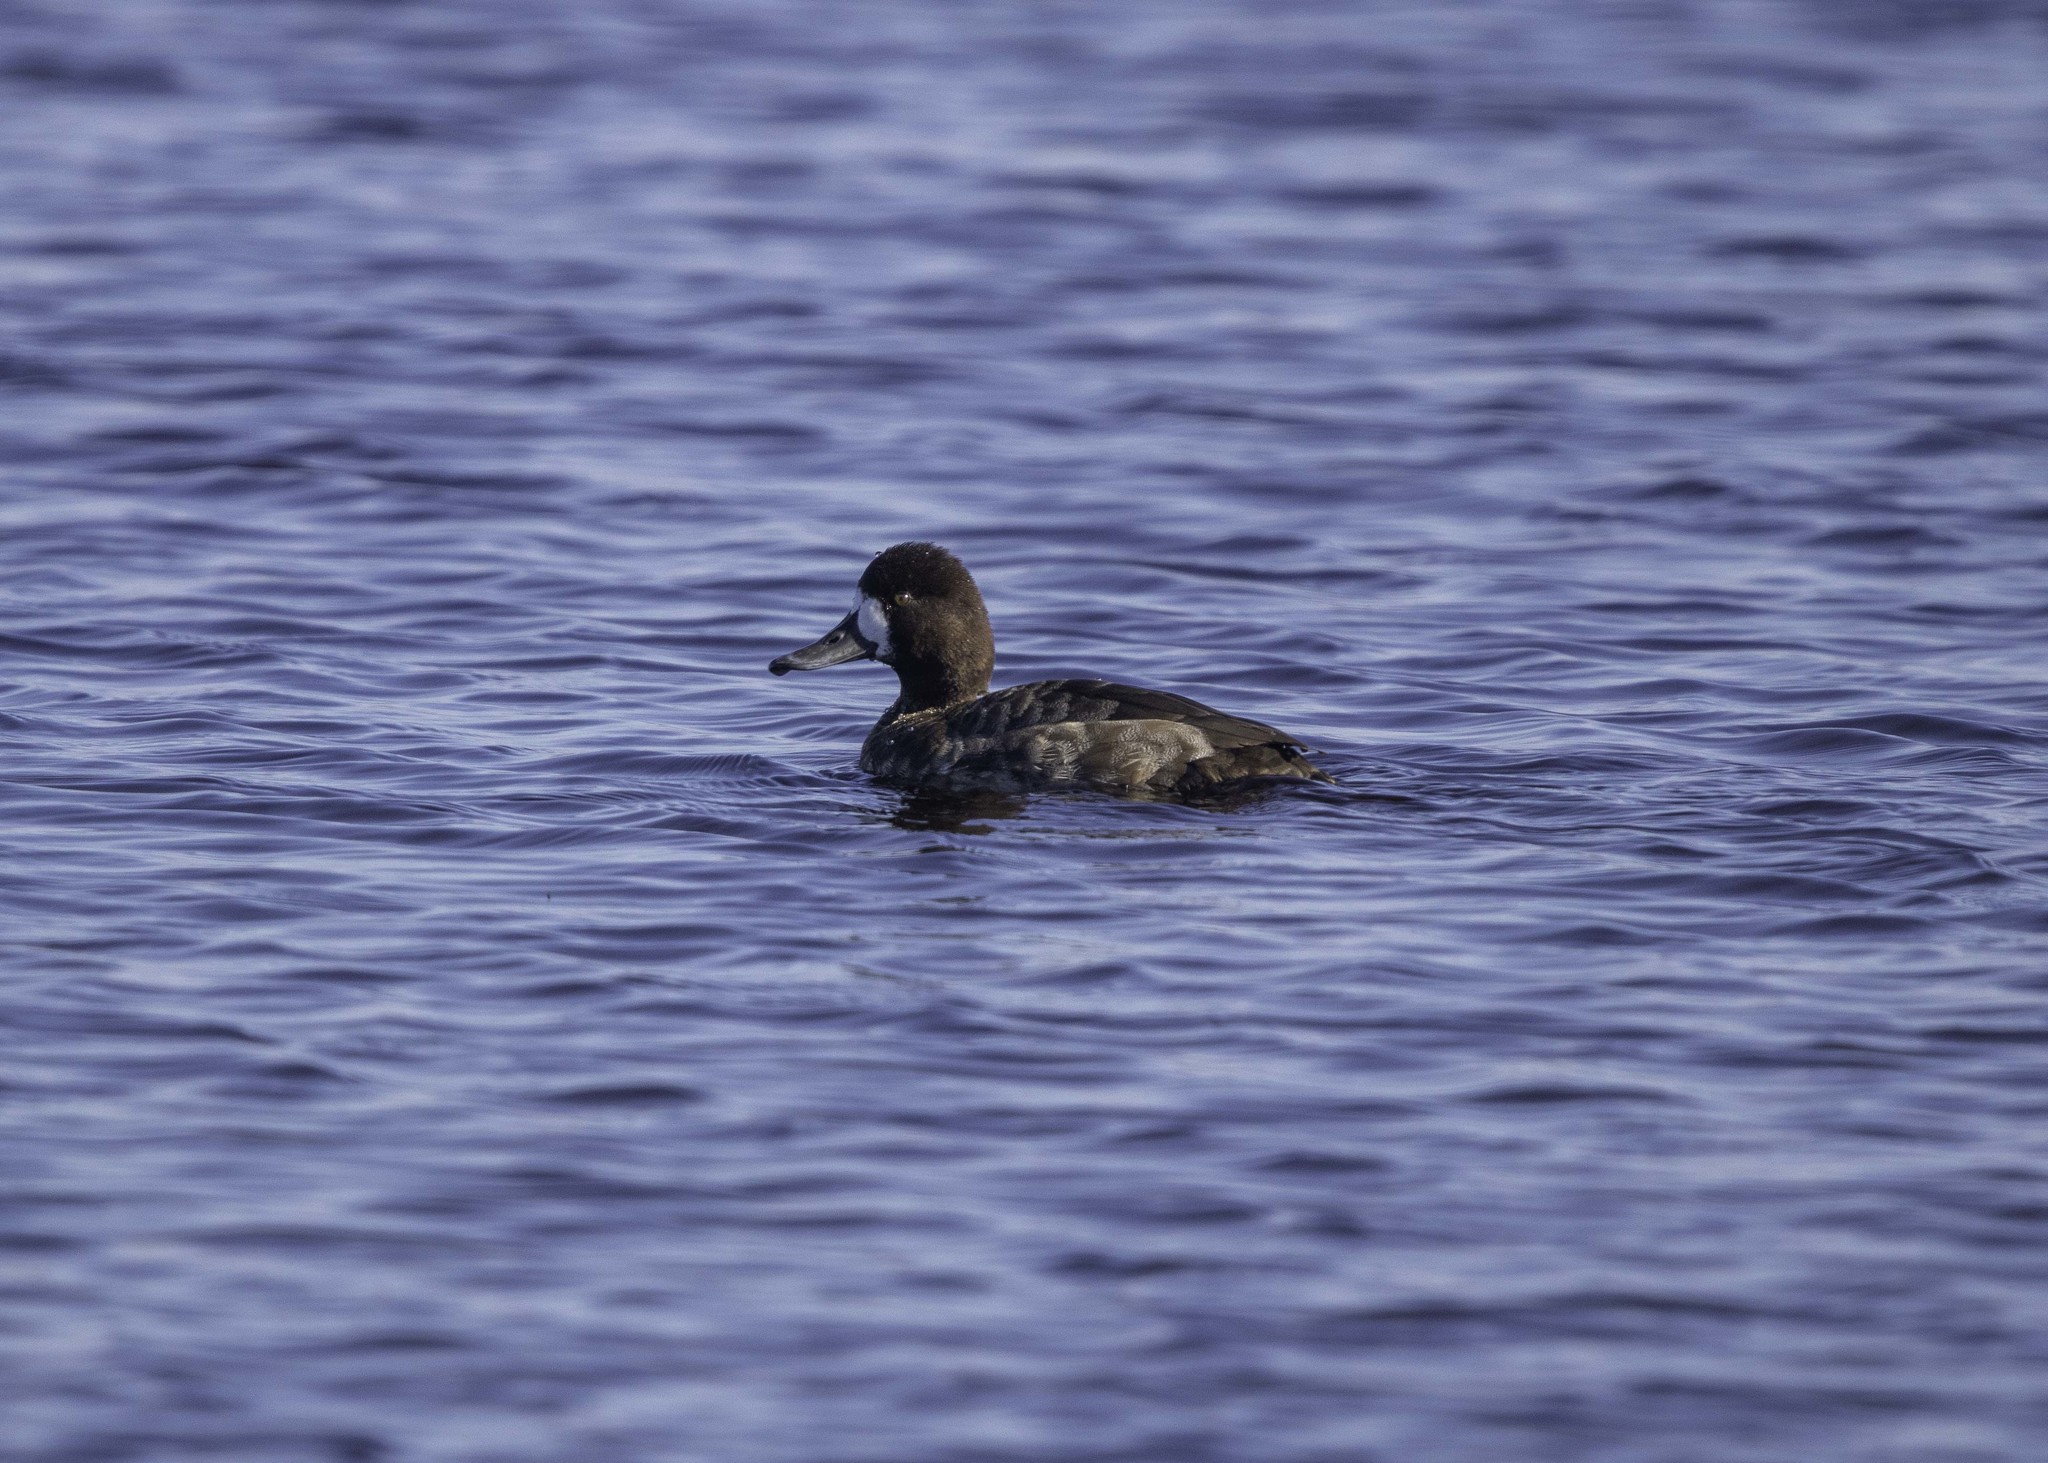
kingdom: Animalia
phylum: Chordata
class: Aves
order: Anseriformes
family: Anatidae
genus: Aythya
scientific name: Aythya affinis
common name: Lesser scaup
